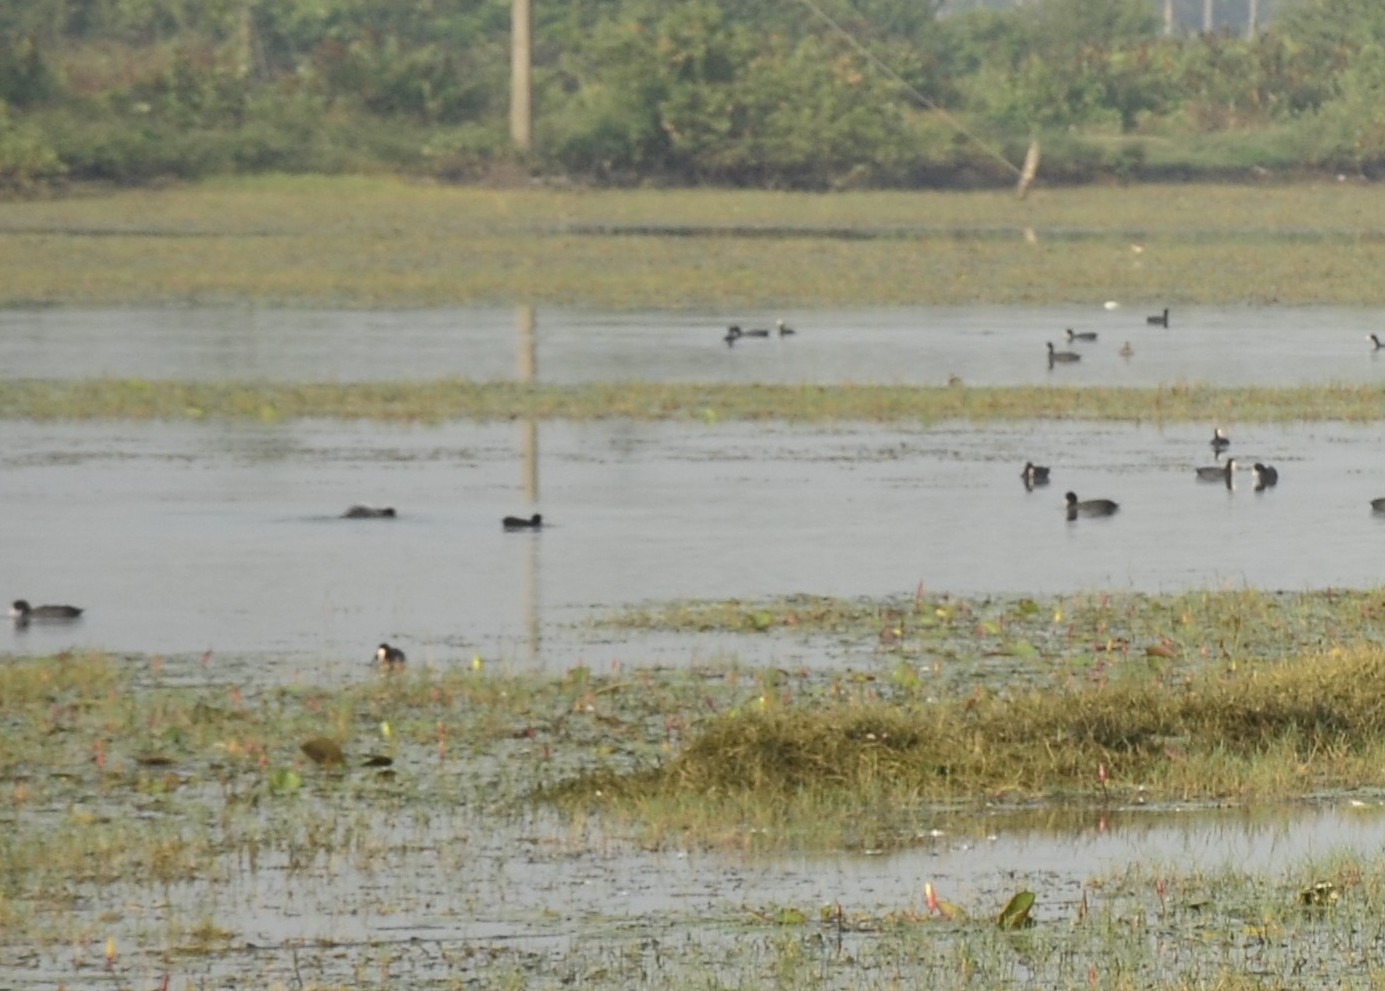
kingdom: Animalia
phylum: Chordata
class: Aves
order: Gruiformes
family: Rallidae
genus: Fulica
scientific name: Fulica atra
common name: Eurasian coot
